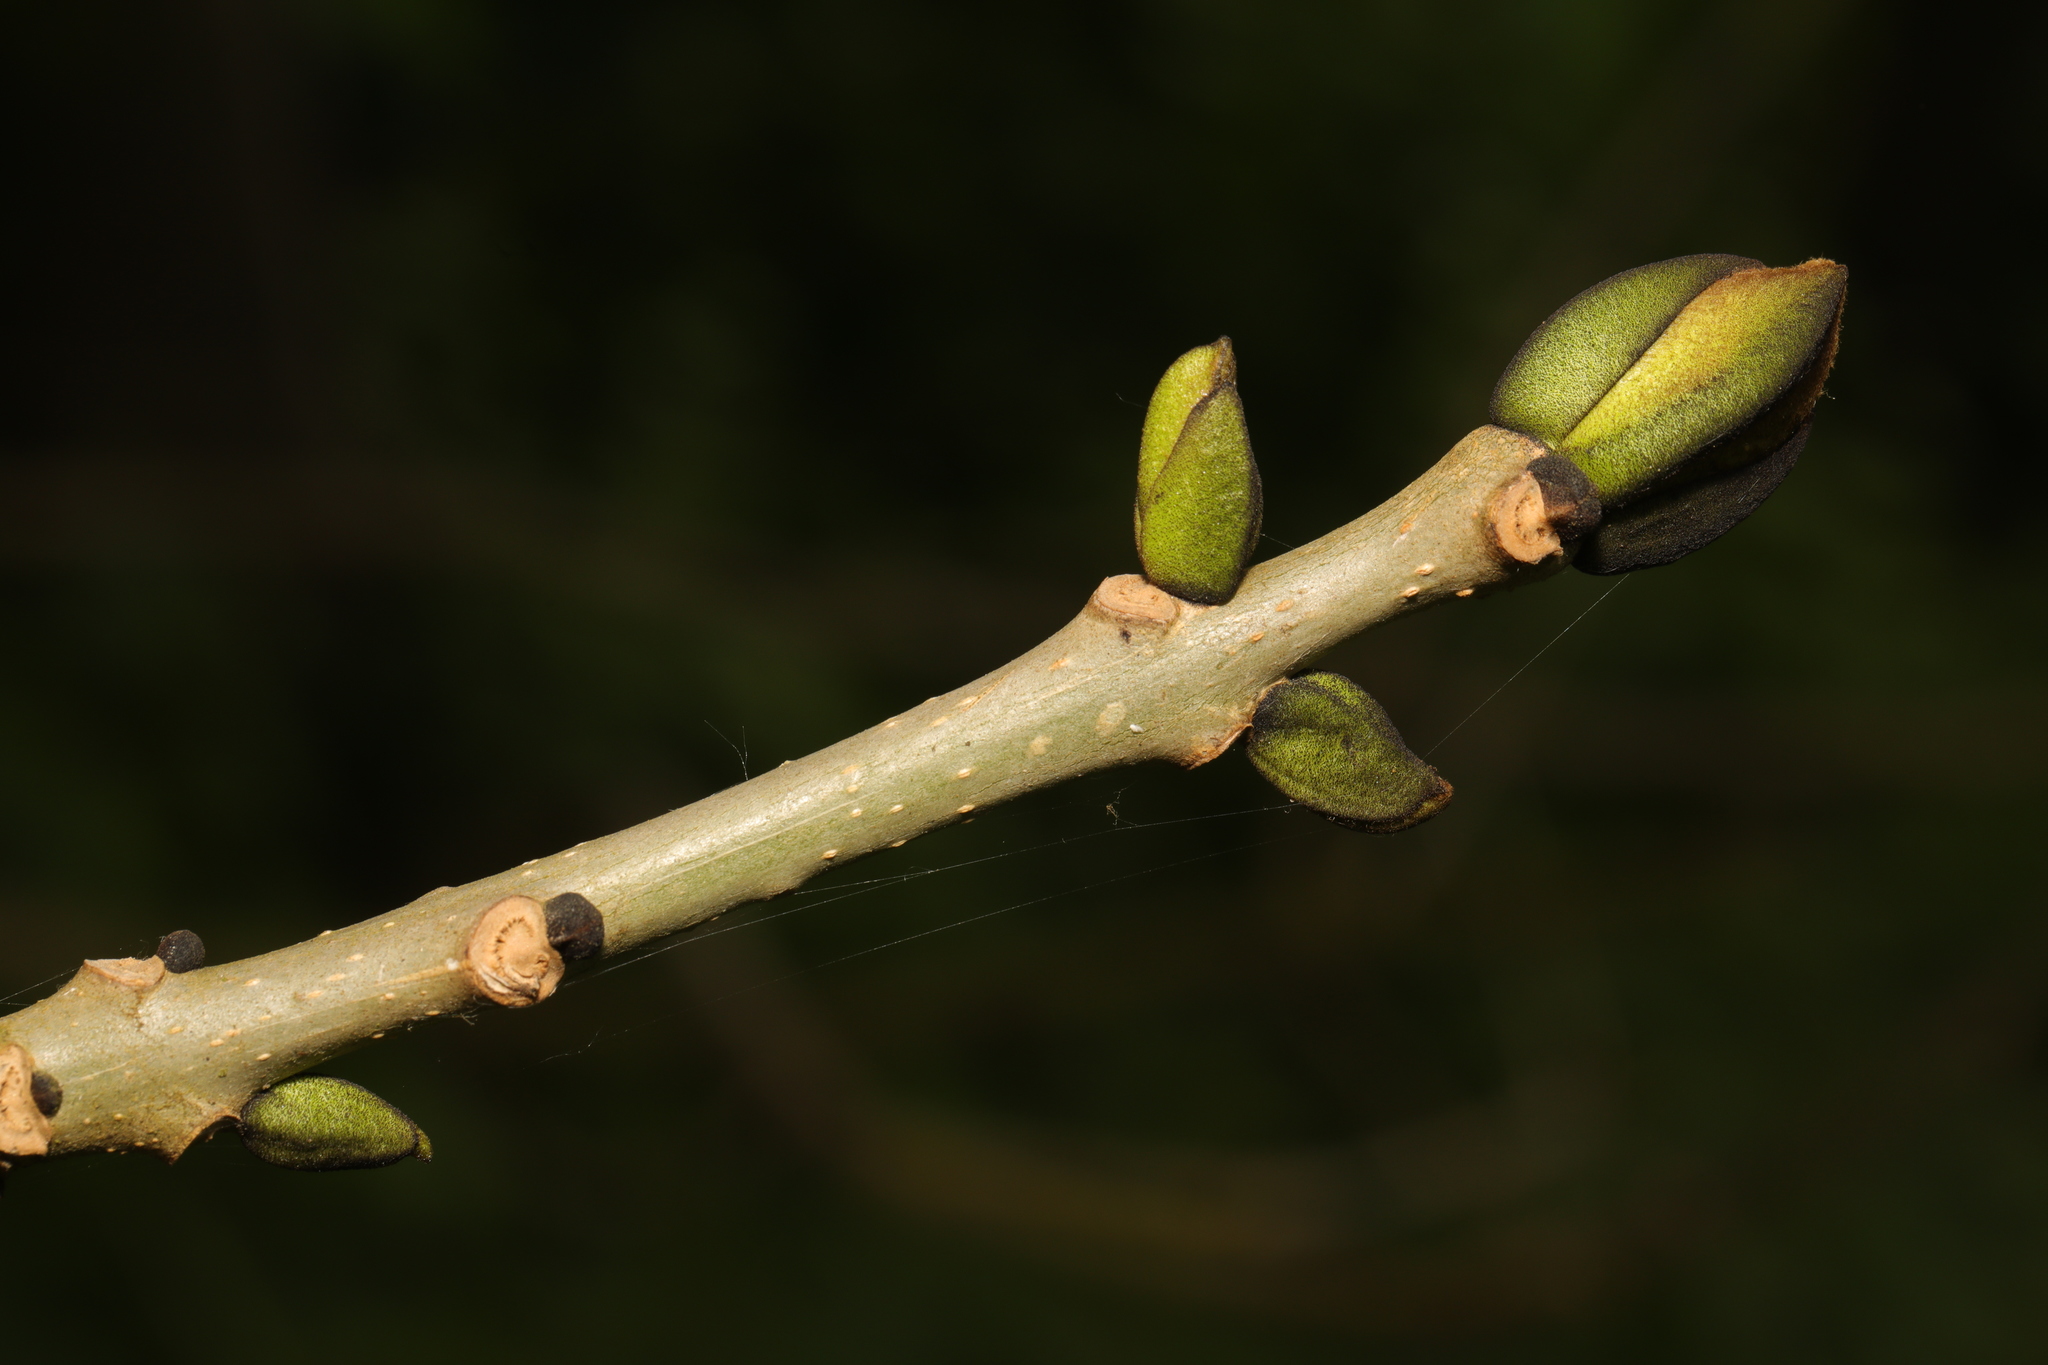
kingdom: Plantae
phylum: Tracheophyta
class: Magnoliopsida
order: Lamiales
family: Oleaceae
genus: Fraxinus
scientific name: Fraxinus excelsior
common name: European ash
